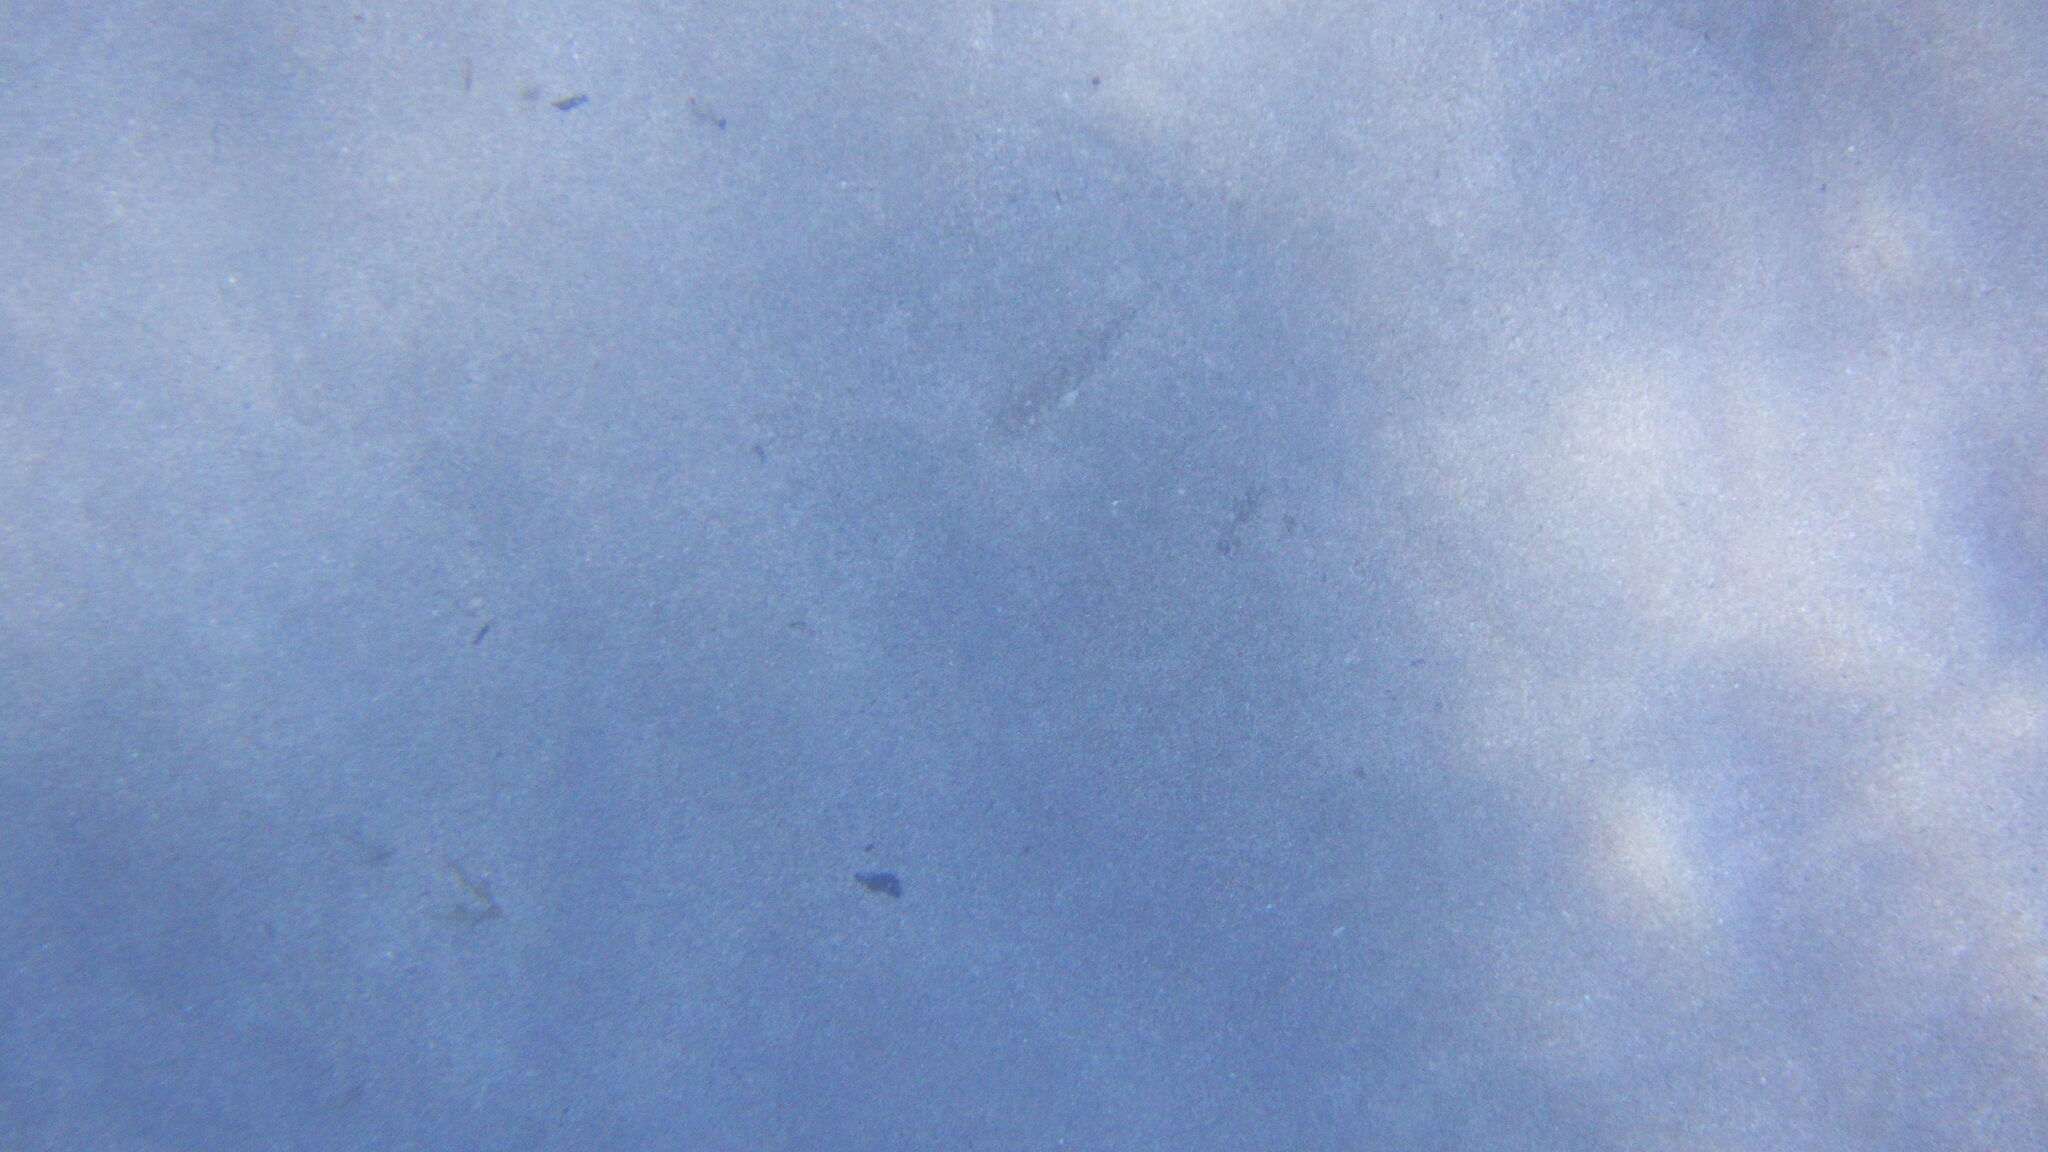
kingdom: Animalia
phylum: Chordata
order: Perciformes
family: Gobiidae
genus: Gobius
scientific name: Gobius
